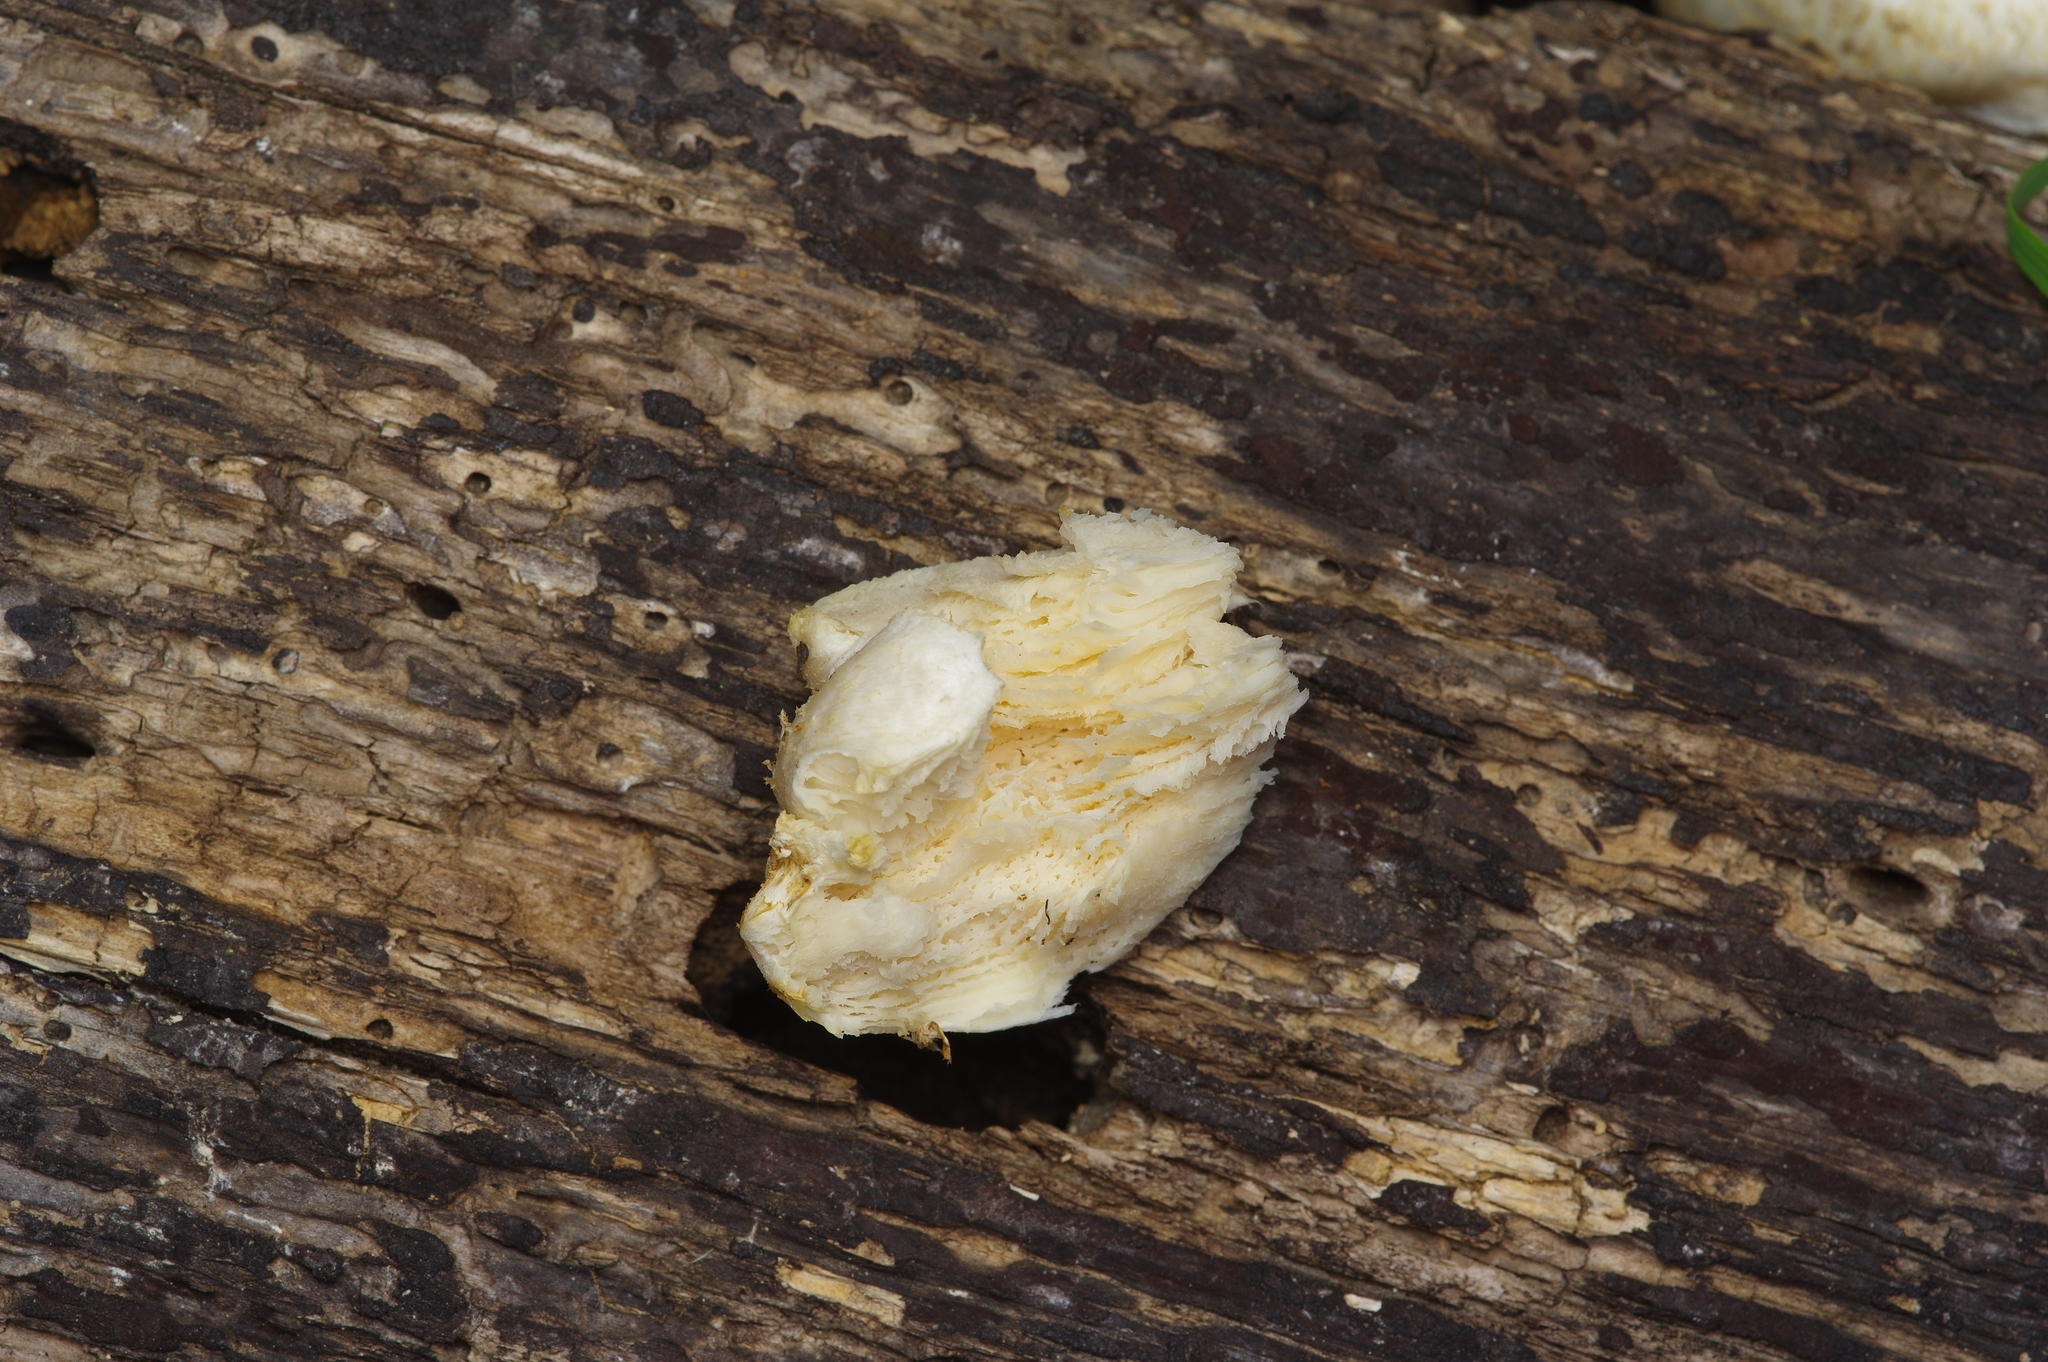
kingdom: Fungi
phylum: Basidiomycota
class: Agaricomycetes
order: Polyporales
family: Polyporaceae
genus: Lentinus
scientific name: Lentinus tigrinus
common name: Tiger sawgill
